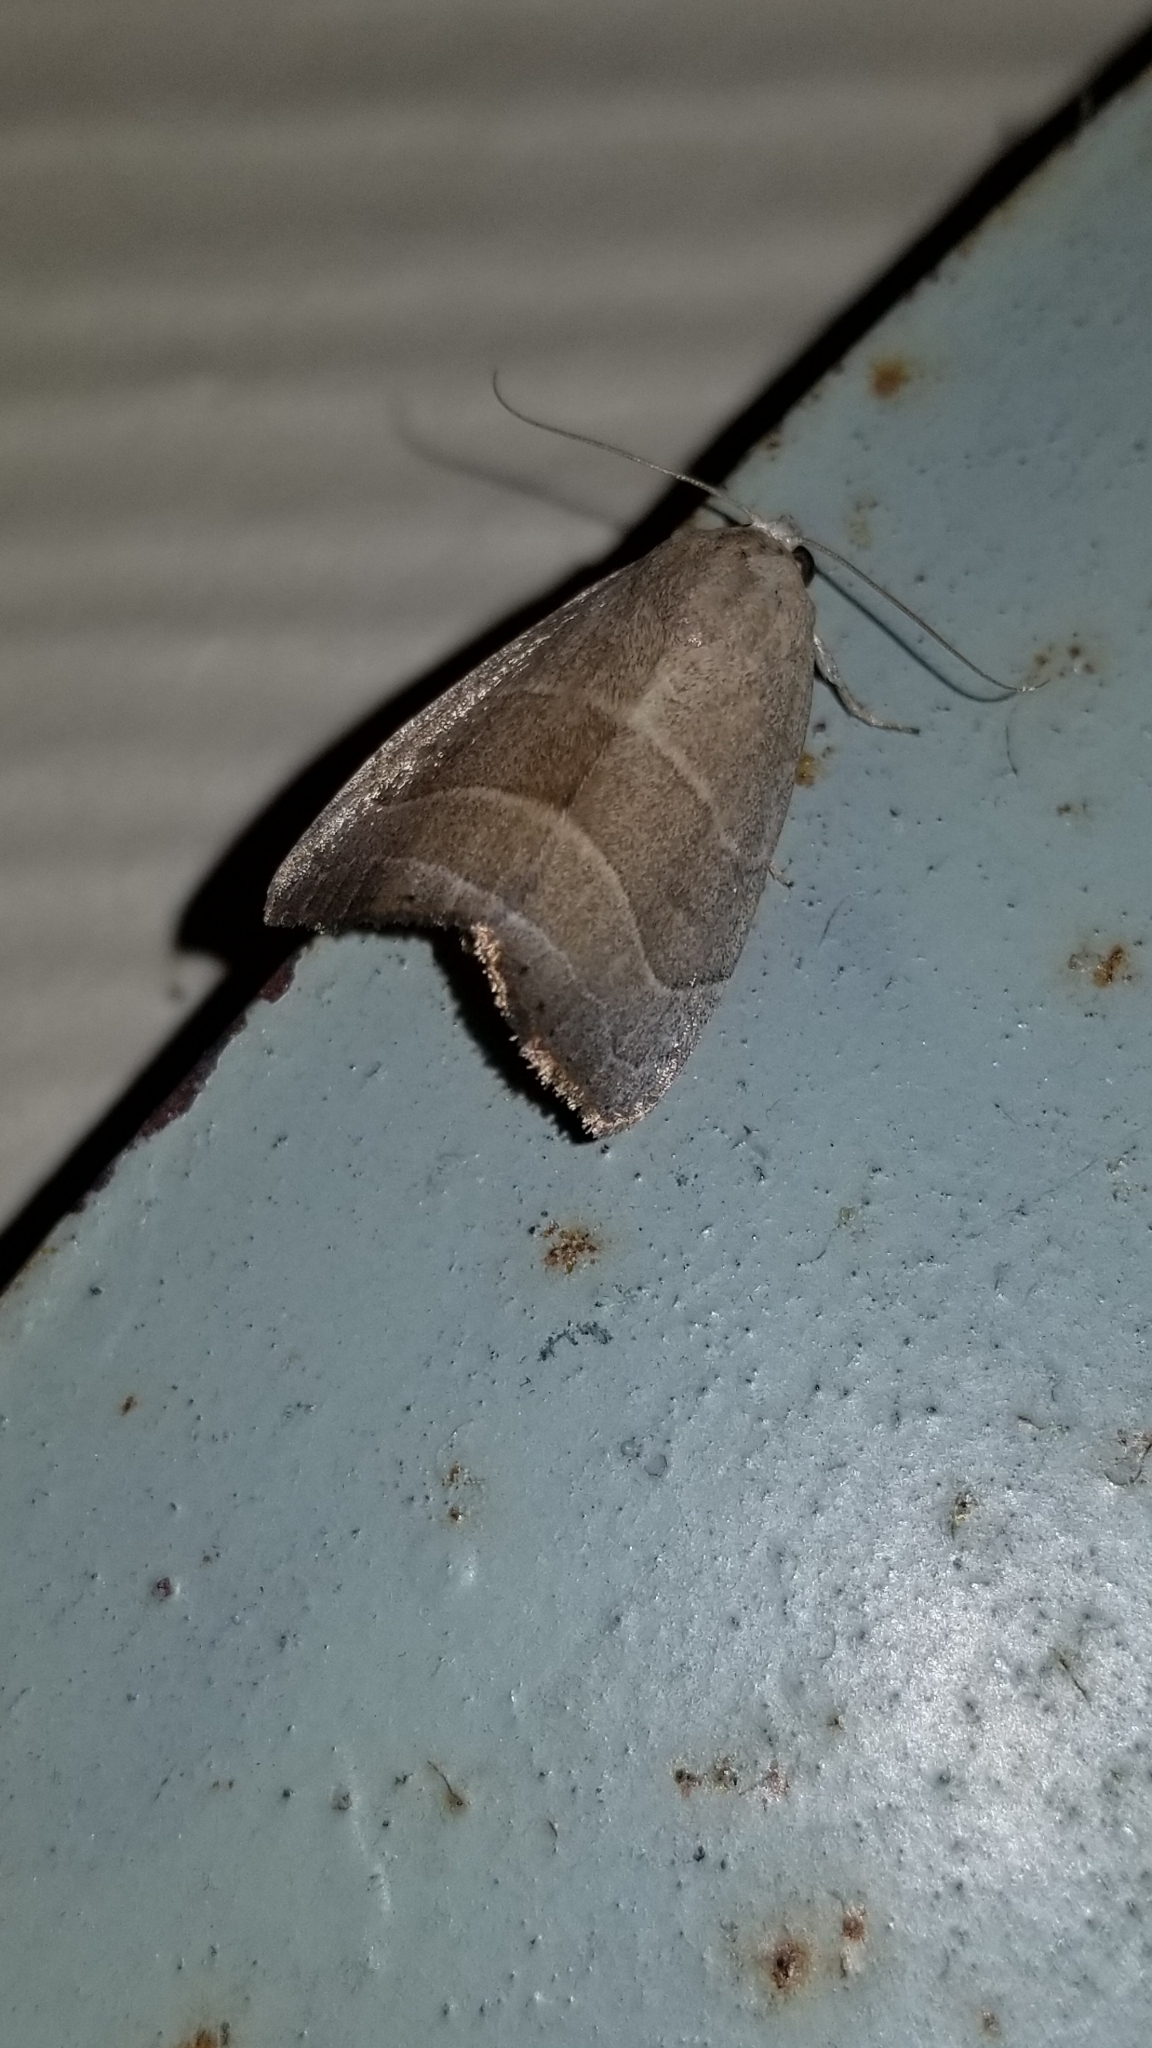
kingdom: Animalia
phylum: Arthropoda
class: Insecta
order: Lepidoptera
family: Noctuidae
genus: Bagisara
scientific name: Bagisara rectifascia
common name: Straight lined mallow moth
